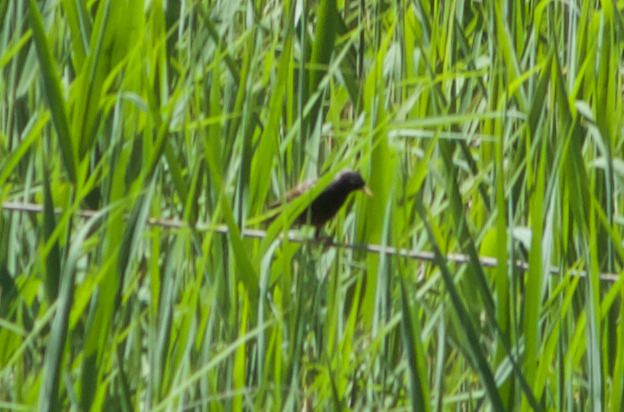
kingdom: Animalia
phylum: Chordata
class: Aves
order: Passeriformes
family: Sturnidae
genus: Sturnus
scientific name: Sturnus vulgaris
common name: Common starling
